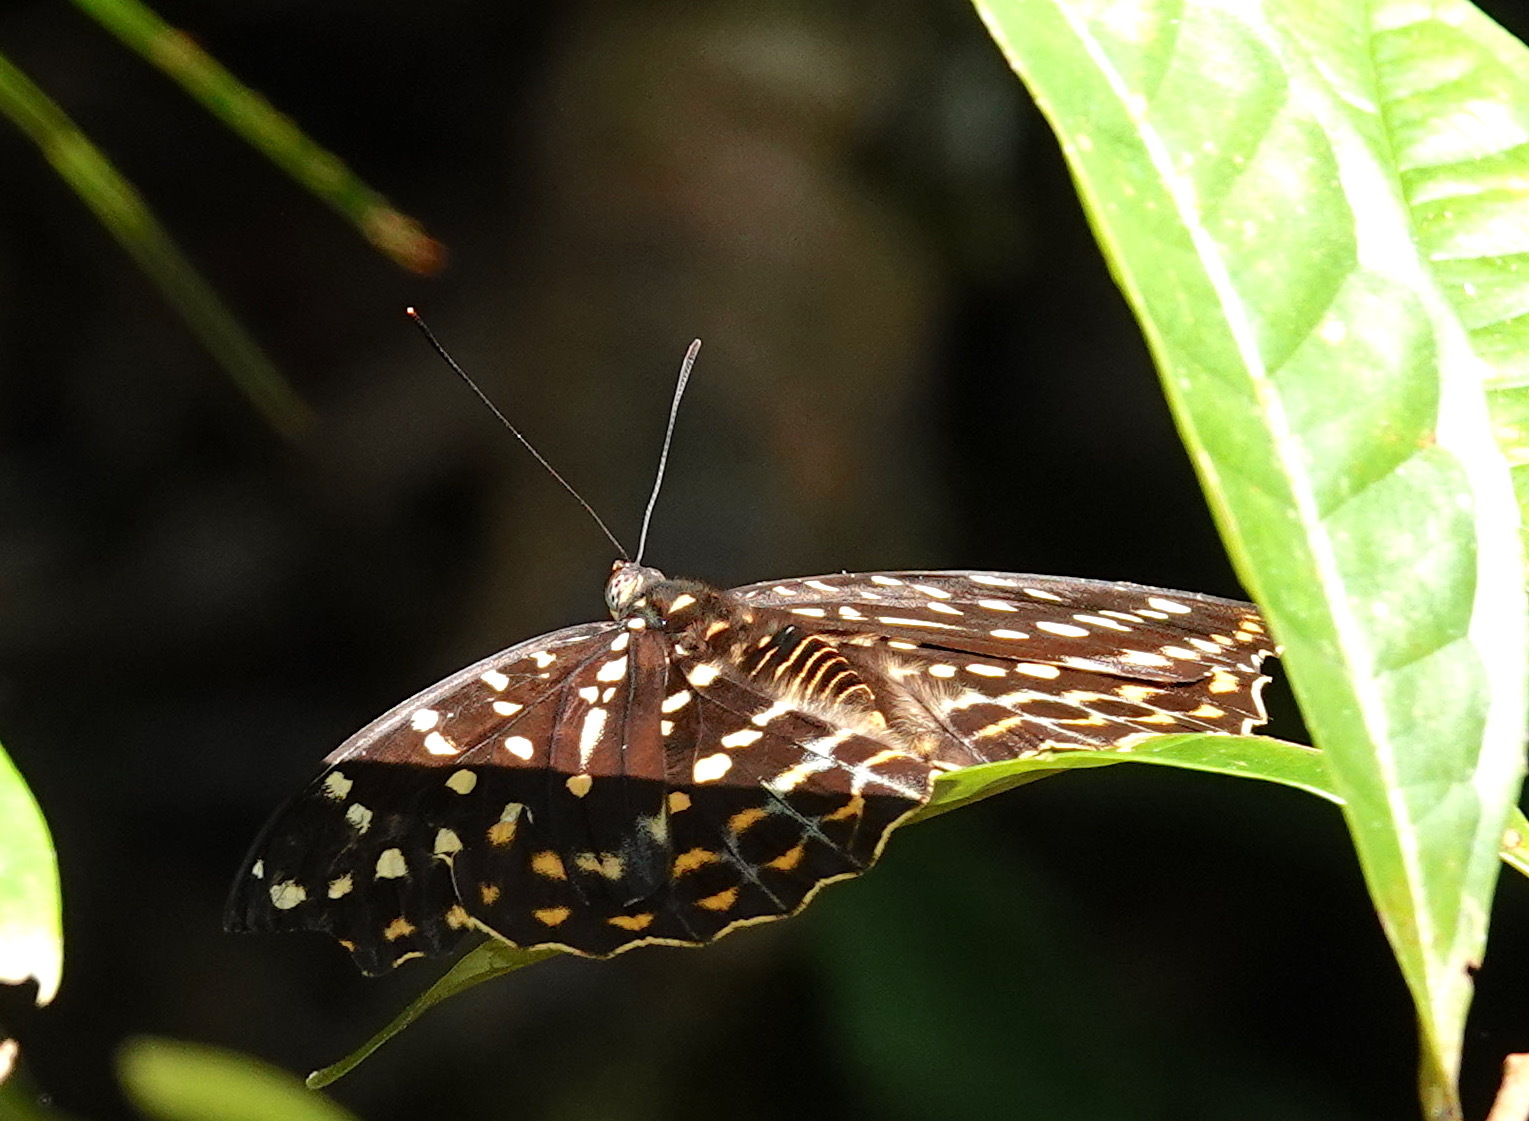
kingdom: Animalia
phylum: Arthropoda
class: Insecta
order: Lepidoptera
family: Nymphalidae
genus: Lexias
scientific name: Lexias dirtea
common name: Black-tipped archduke
